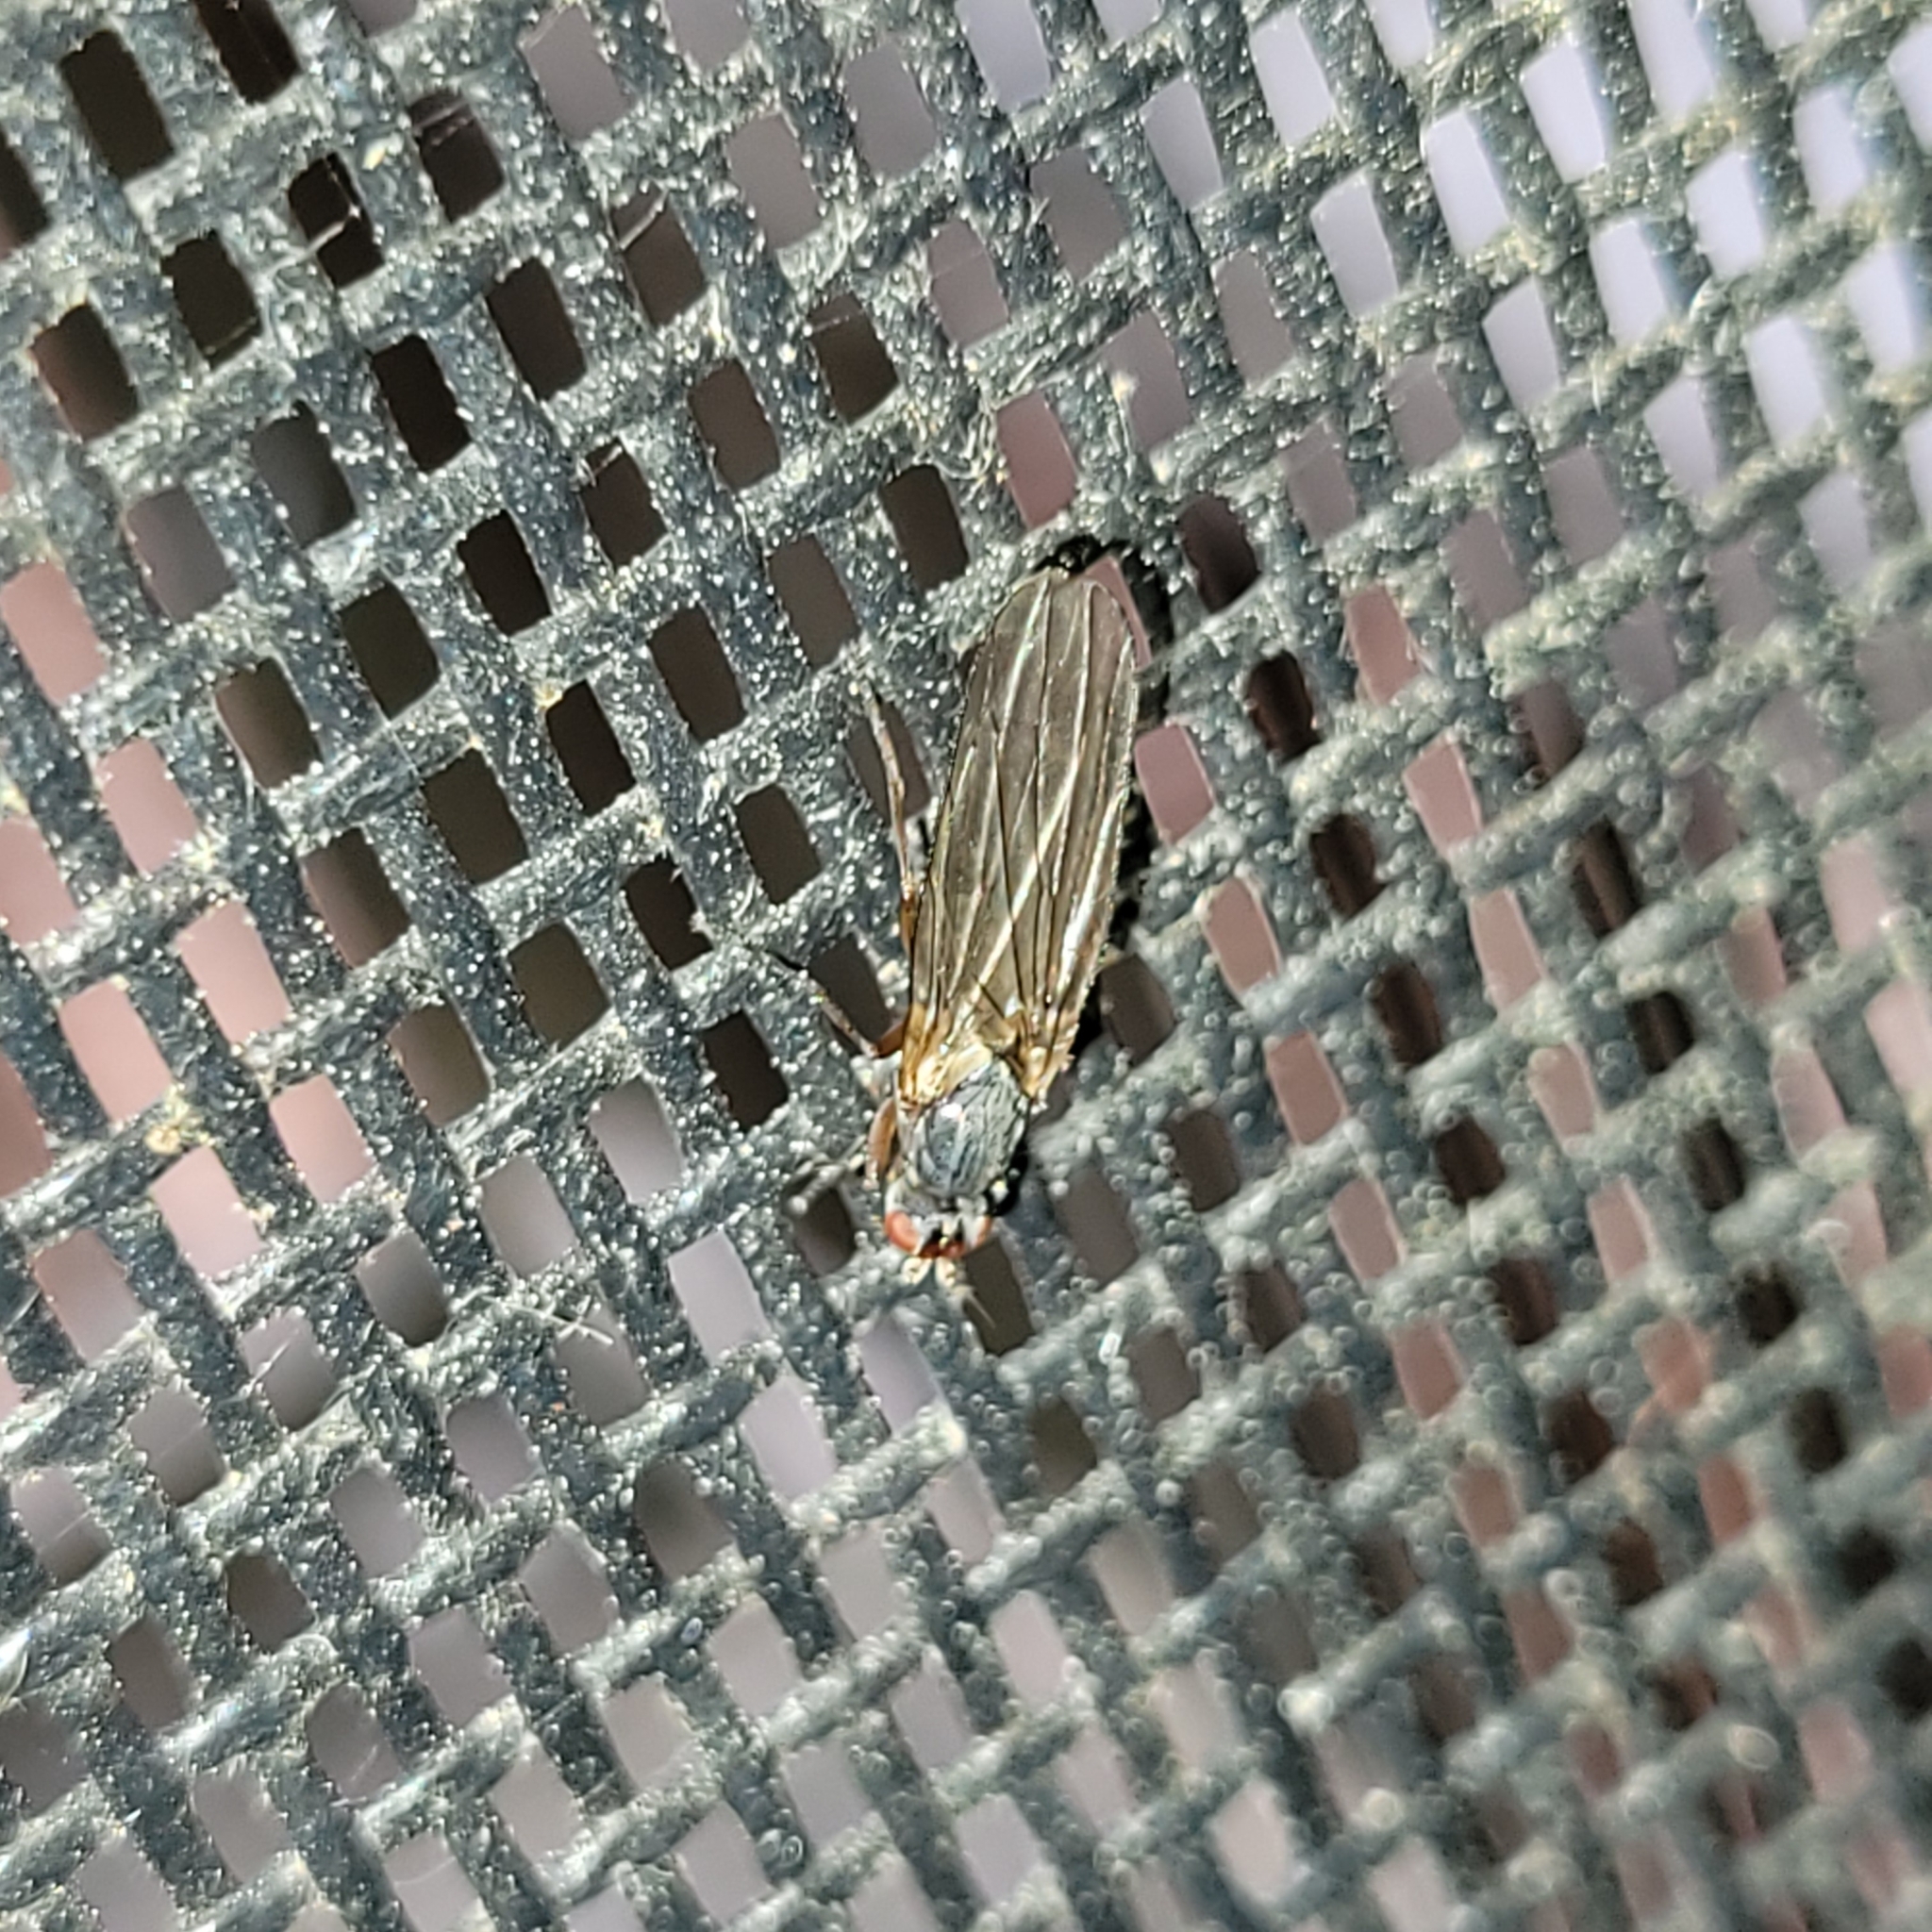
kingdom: Animalia
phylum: Arthropoda
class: Insecta
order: Diptera
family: Heleomyzidae
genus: Orbellia
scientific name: Orbellia petersoni
